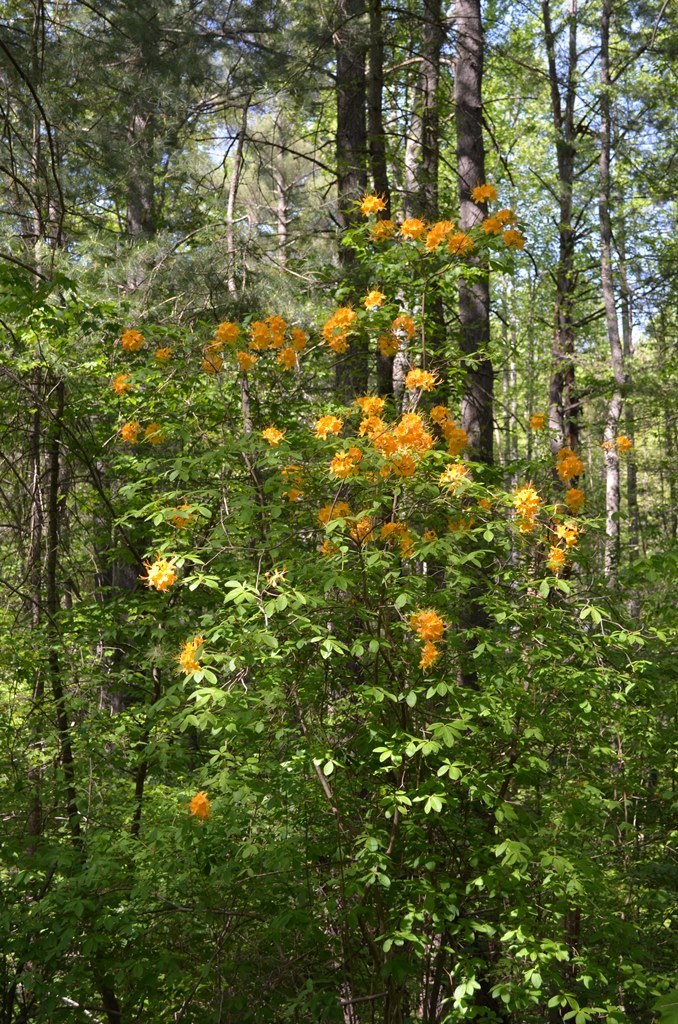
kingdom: Plantae
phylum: Tracheophyta
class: Magnoliopsida
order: Ericales
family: Ericaceae
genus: Rhododendron
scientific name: Rhododendron calendulaceum
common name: Flame azalea
